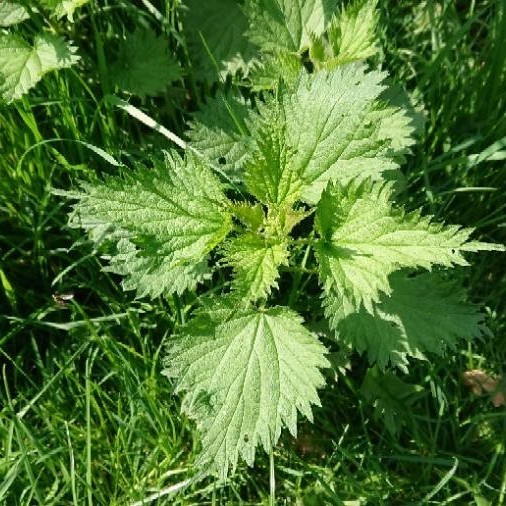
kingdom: Plantae
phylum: Tracheophyta
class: Magnoliopsida
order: Rosales
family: Urticaceae
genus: Urtica
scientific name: Urtica dioica
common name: Common nettle
